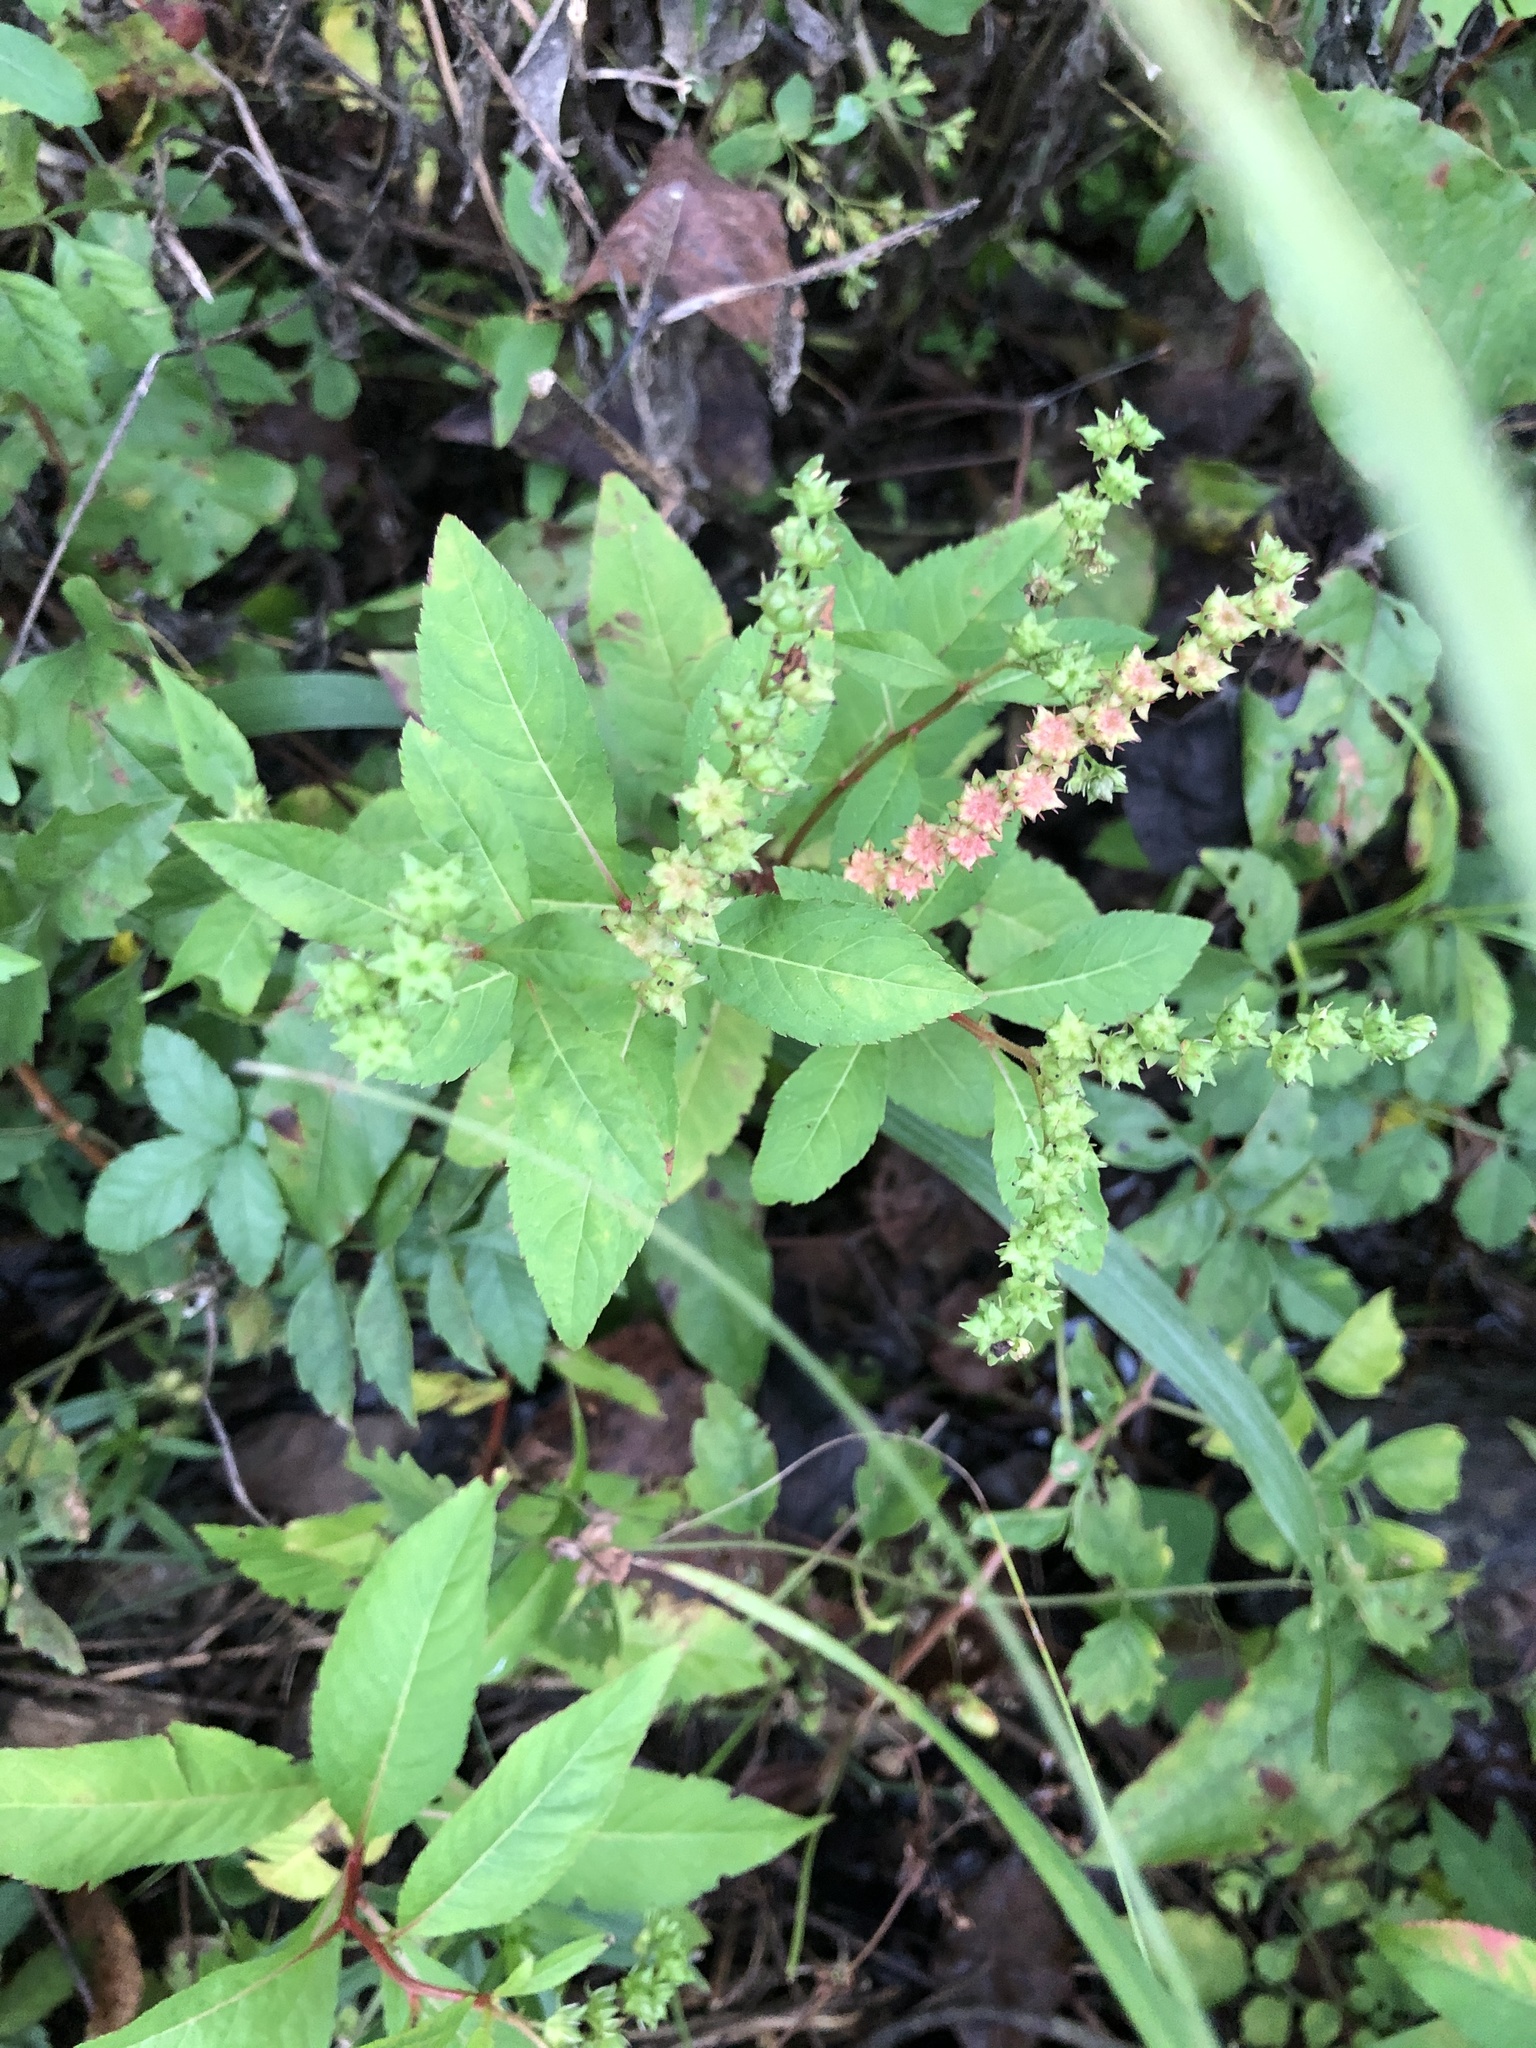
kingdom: Plantae
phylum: Tracheophyta
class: Magnoliopsida
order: Saxifragales
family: Penthoraceae
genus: Penthorum
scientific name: Penthorum sedoides
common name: Ditch stonecrop
